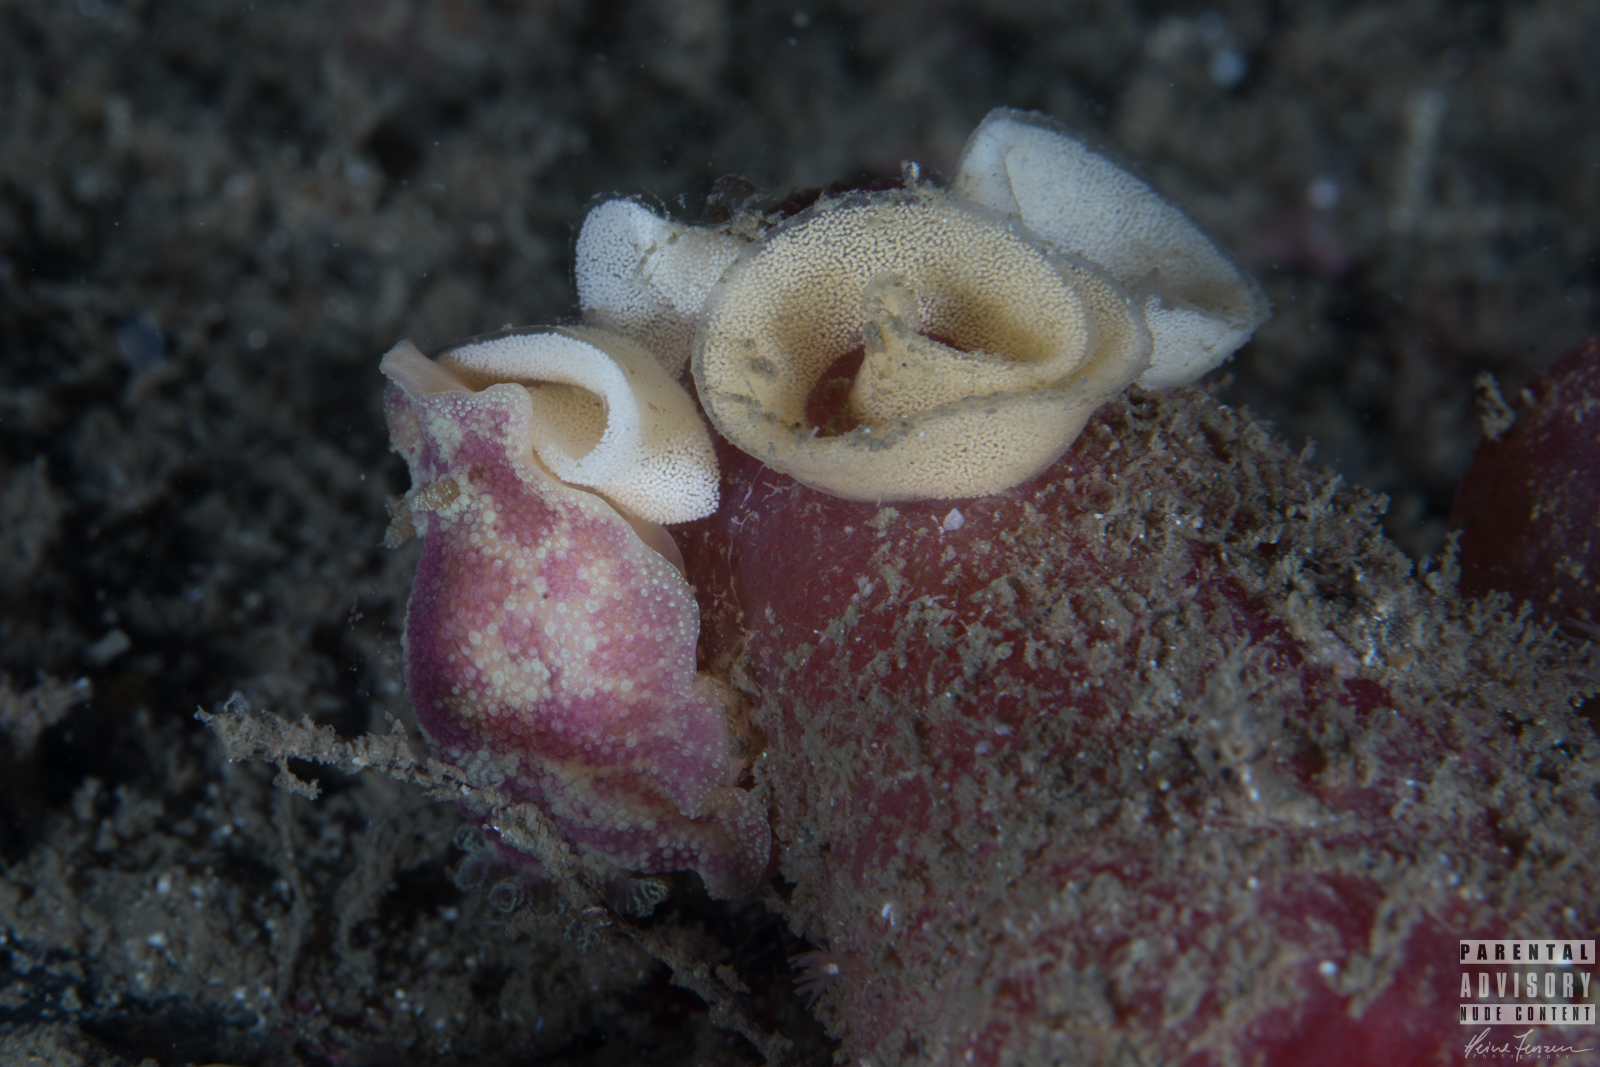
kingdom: Animalia
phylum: Mollusca
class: Gastropoda
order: Nudibranchia
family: Dorididae
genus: Doris
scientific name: Doris pseudoargus
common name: Sea lemon
